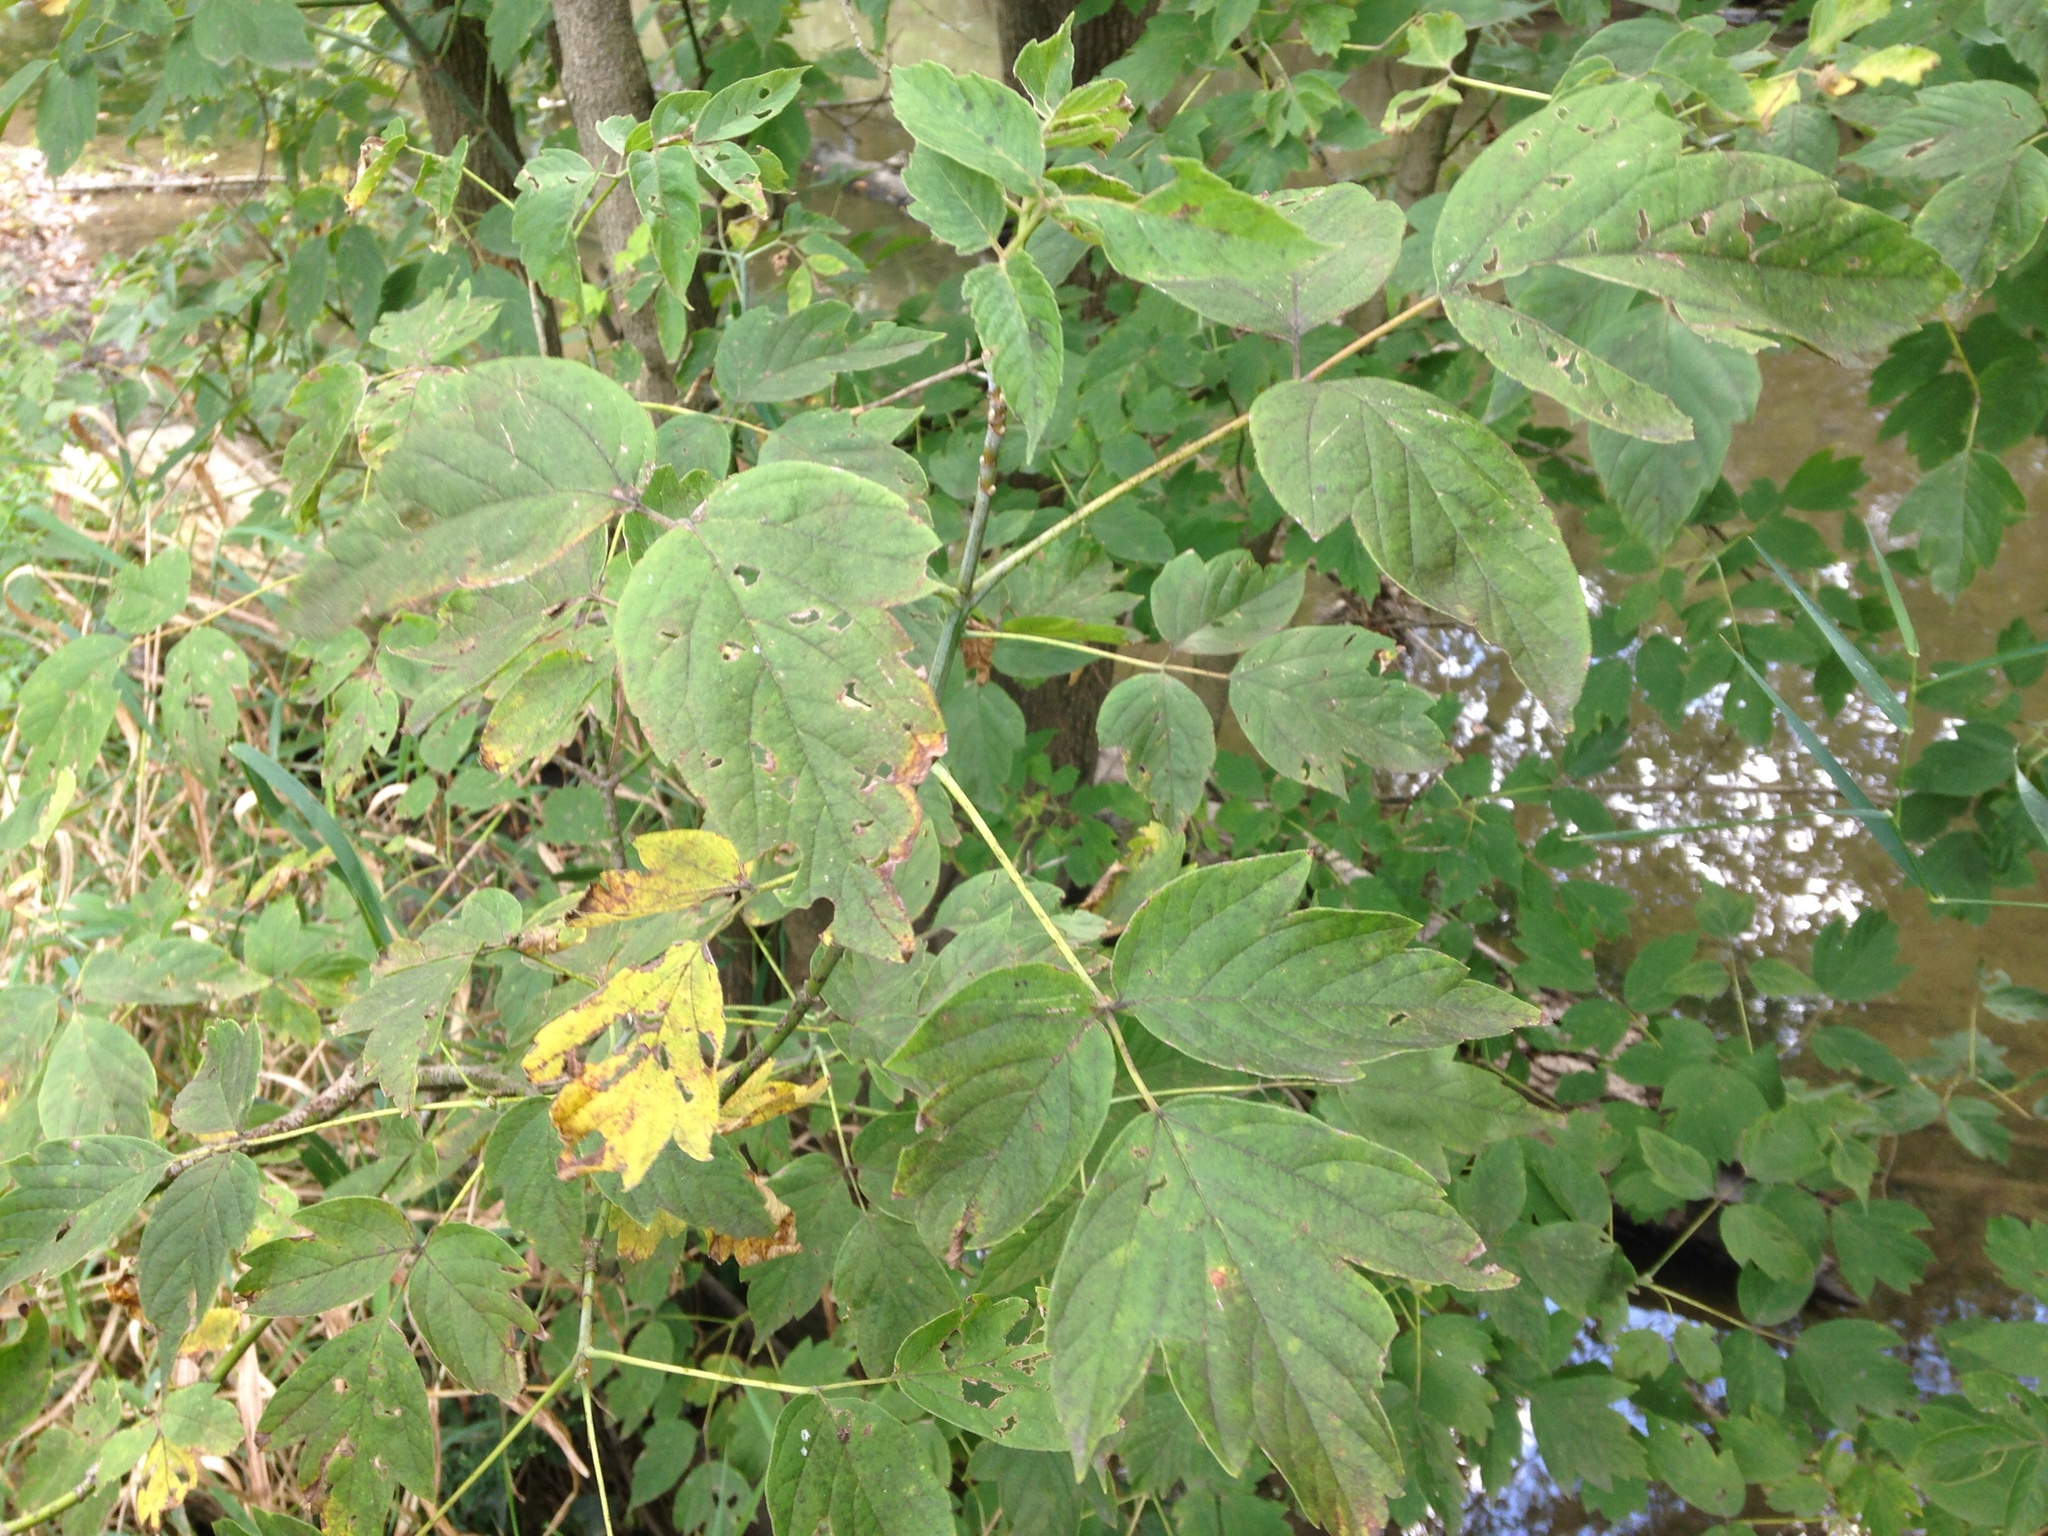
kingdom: Plantae
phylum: Tracheophyta
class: Magnoliopsida
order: Sapindales
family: Sapindaceae
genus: Acer
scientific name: Acer negundo
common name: Ashleaf maple
